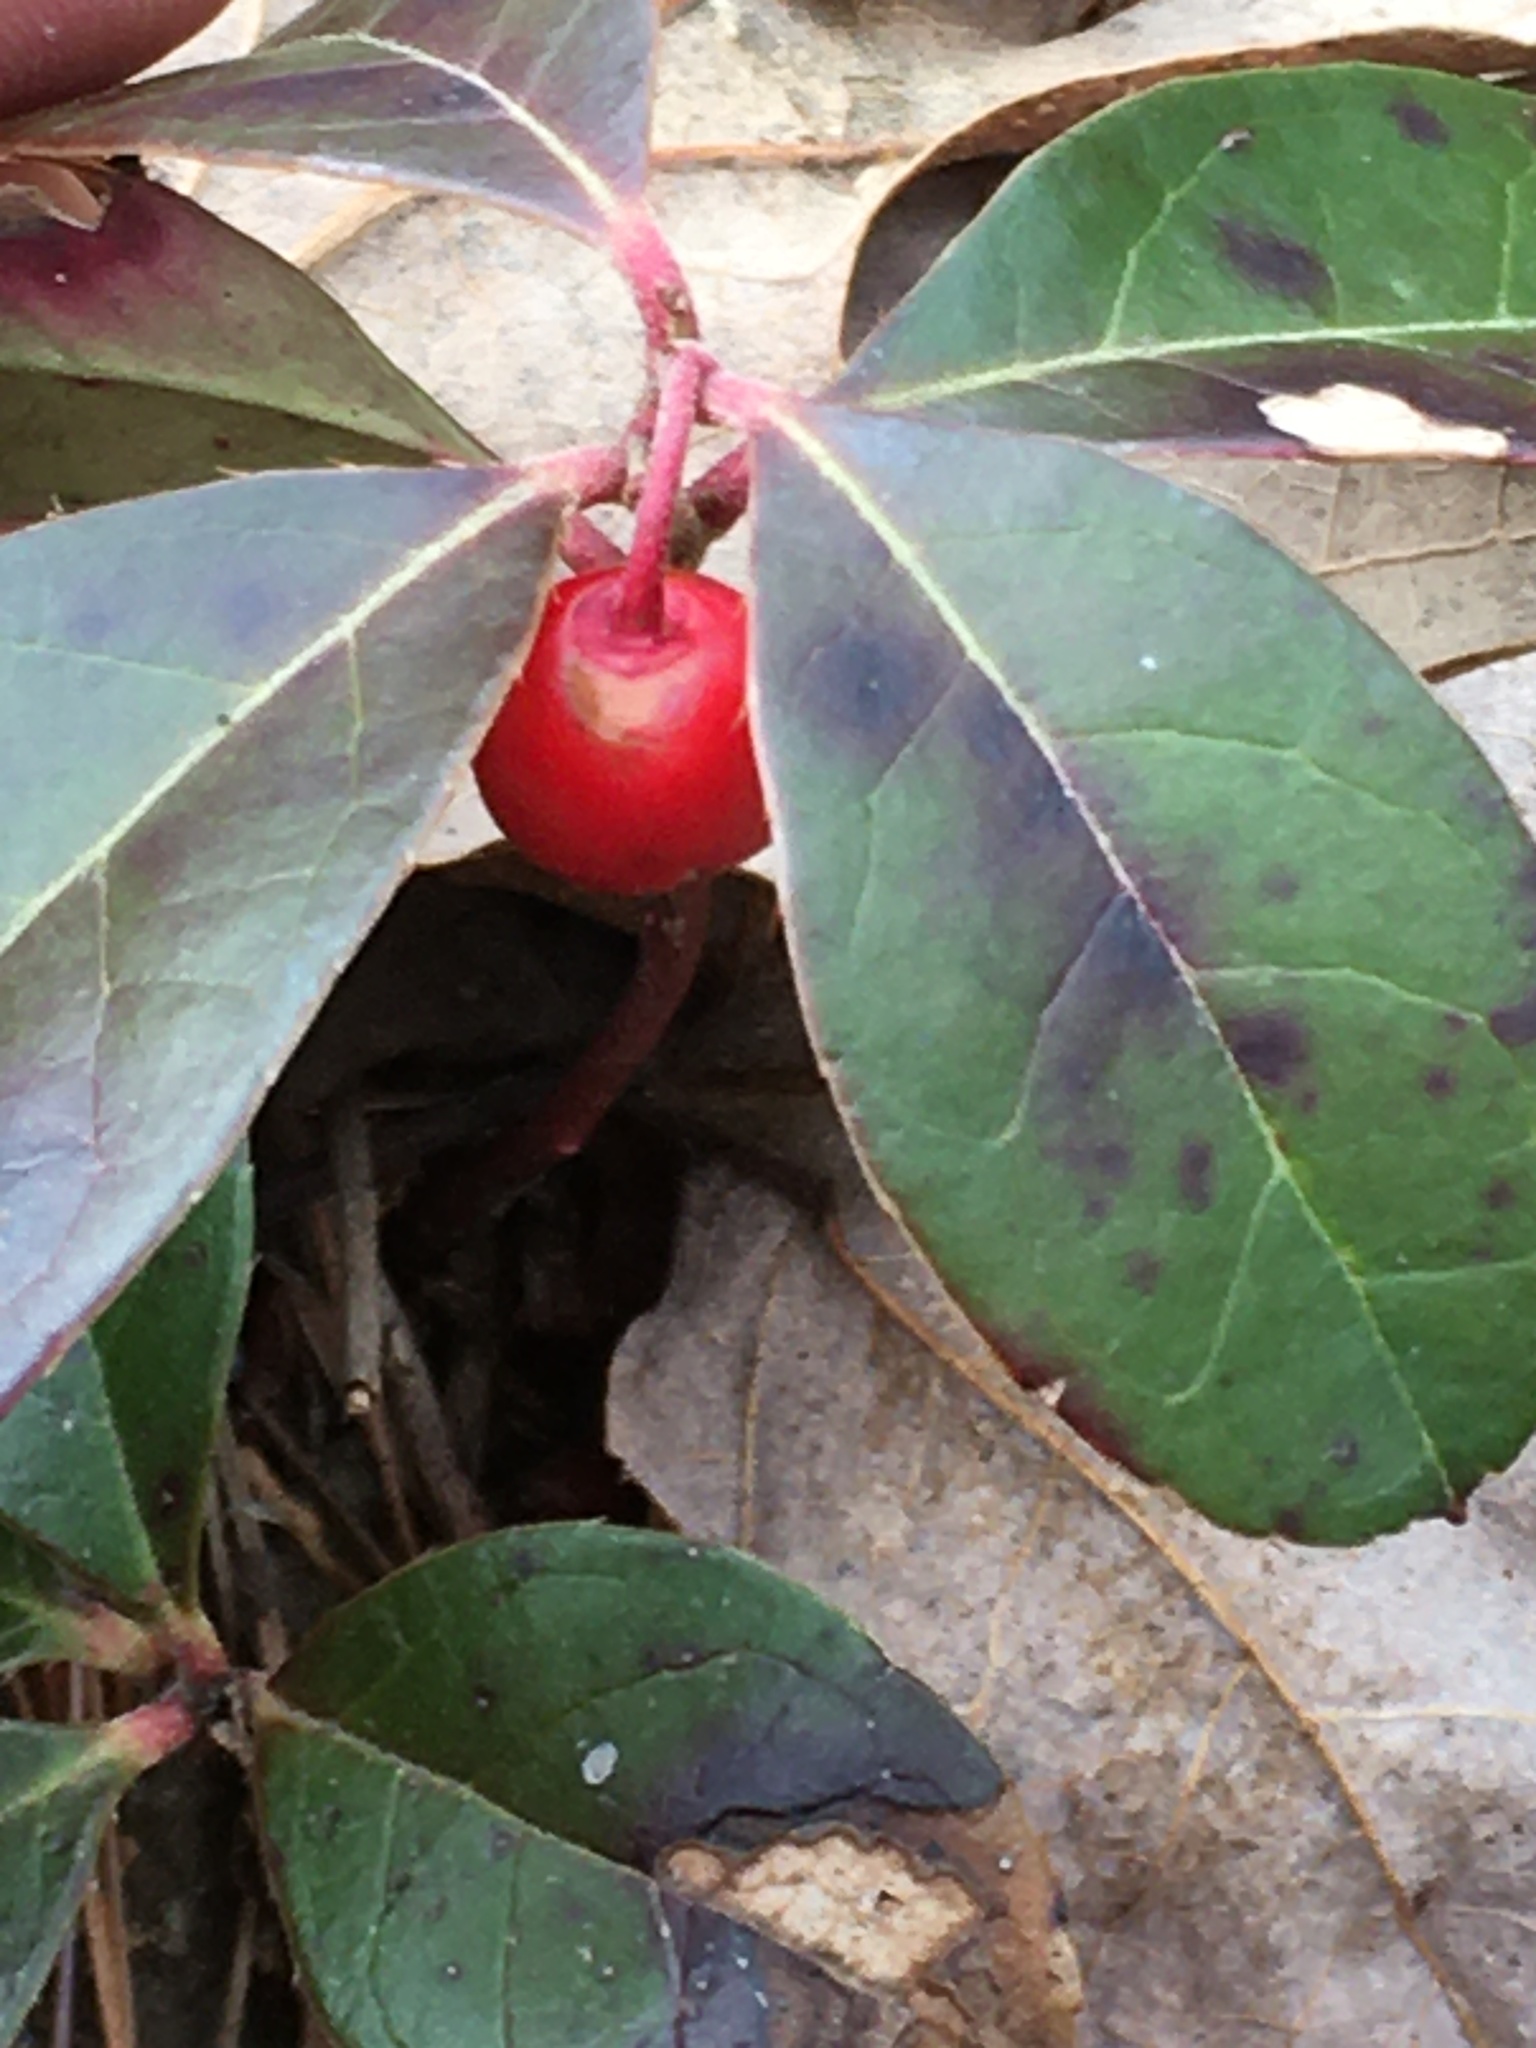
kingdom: Plantae
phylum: Tracheophyta
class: Magnoliopsida
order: Ericales
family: Ericaceae
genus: Gaultheria
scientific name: Gaultheria procumbens
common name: Checkerberry
